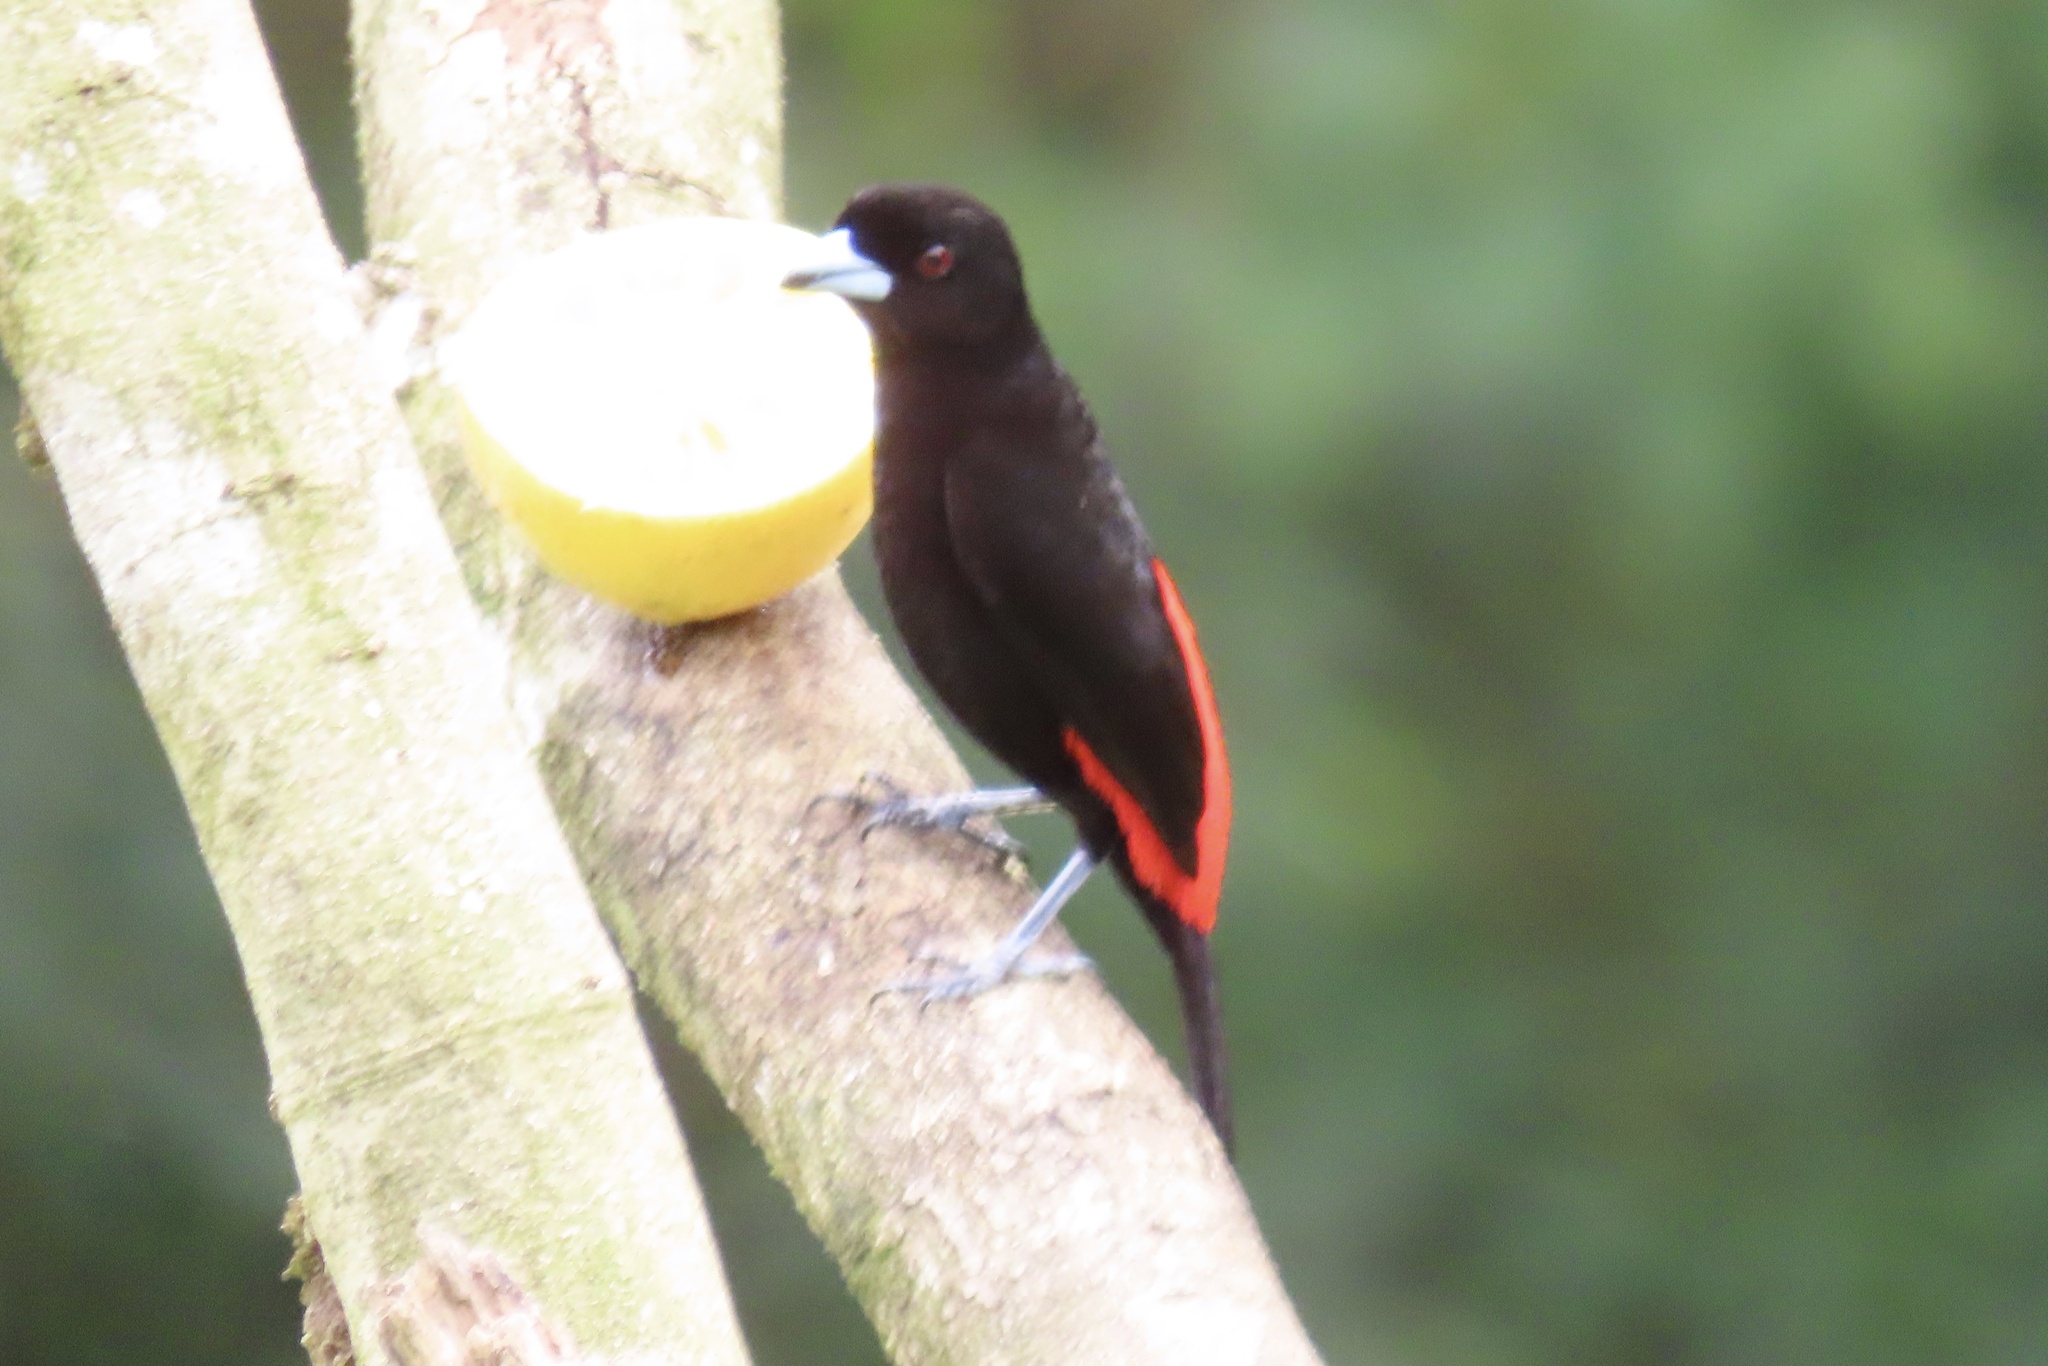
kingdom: Animalia
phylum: Chordata
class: Aves
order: Passeriformes
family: Thraupidae
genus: Ramphocelus
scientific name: Ramphocelus passerinii
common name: Passerini's tanager
